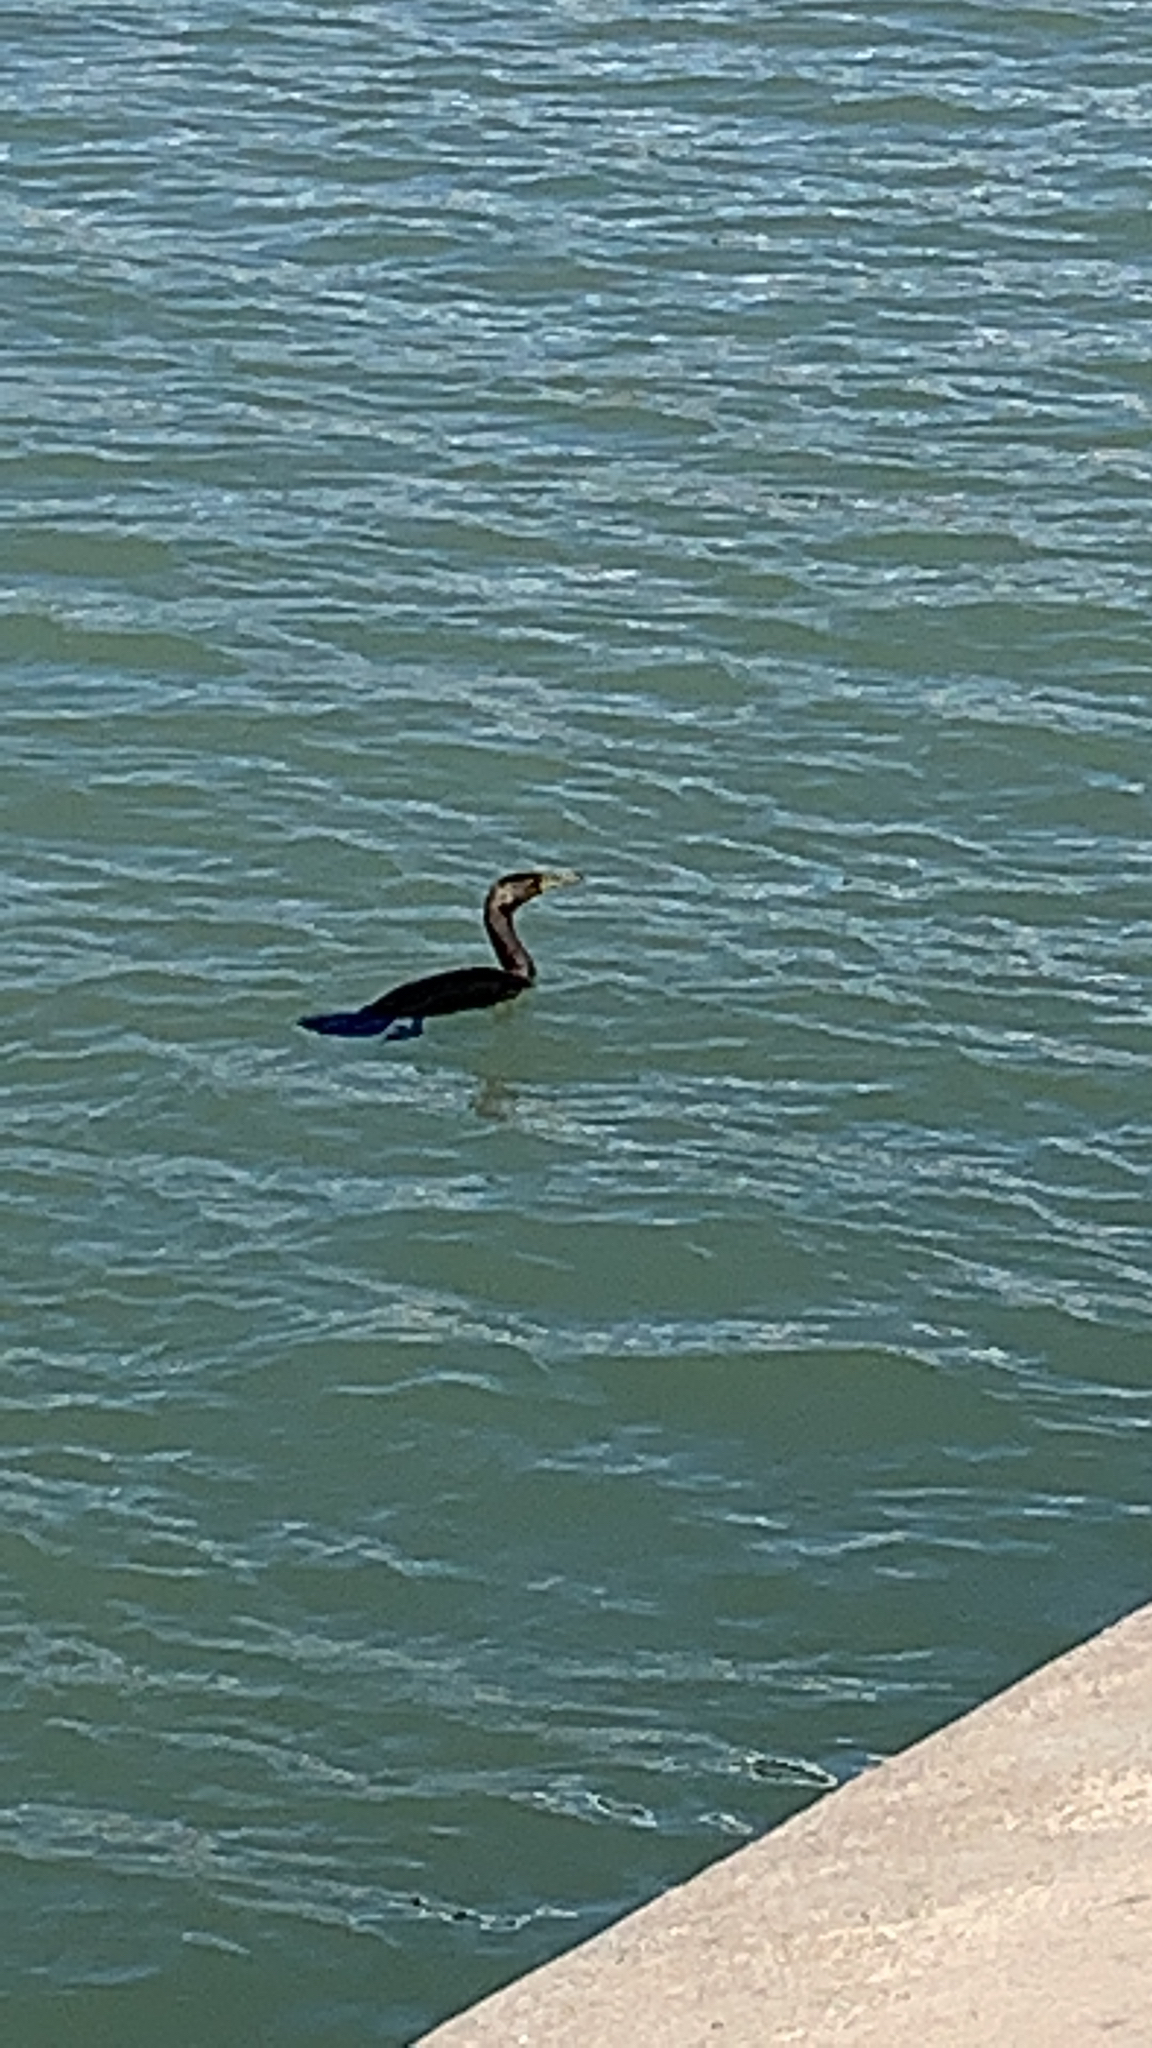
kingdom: Animalia
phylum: Chordata
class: Aves
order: Suliformes
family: Phalacrocoracidae
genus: Phalacrocorax
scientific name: Phalacrocorax auritus
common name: Double-crested cormorant
